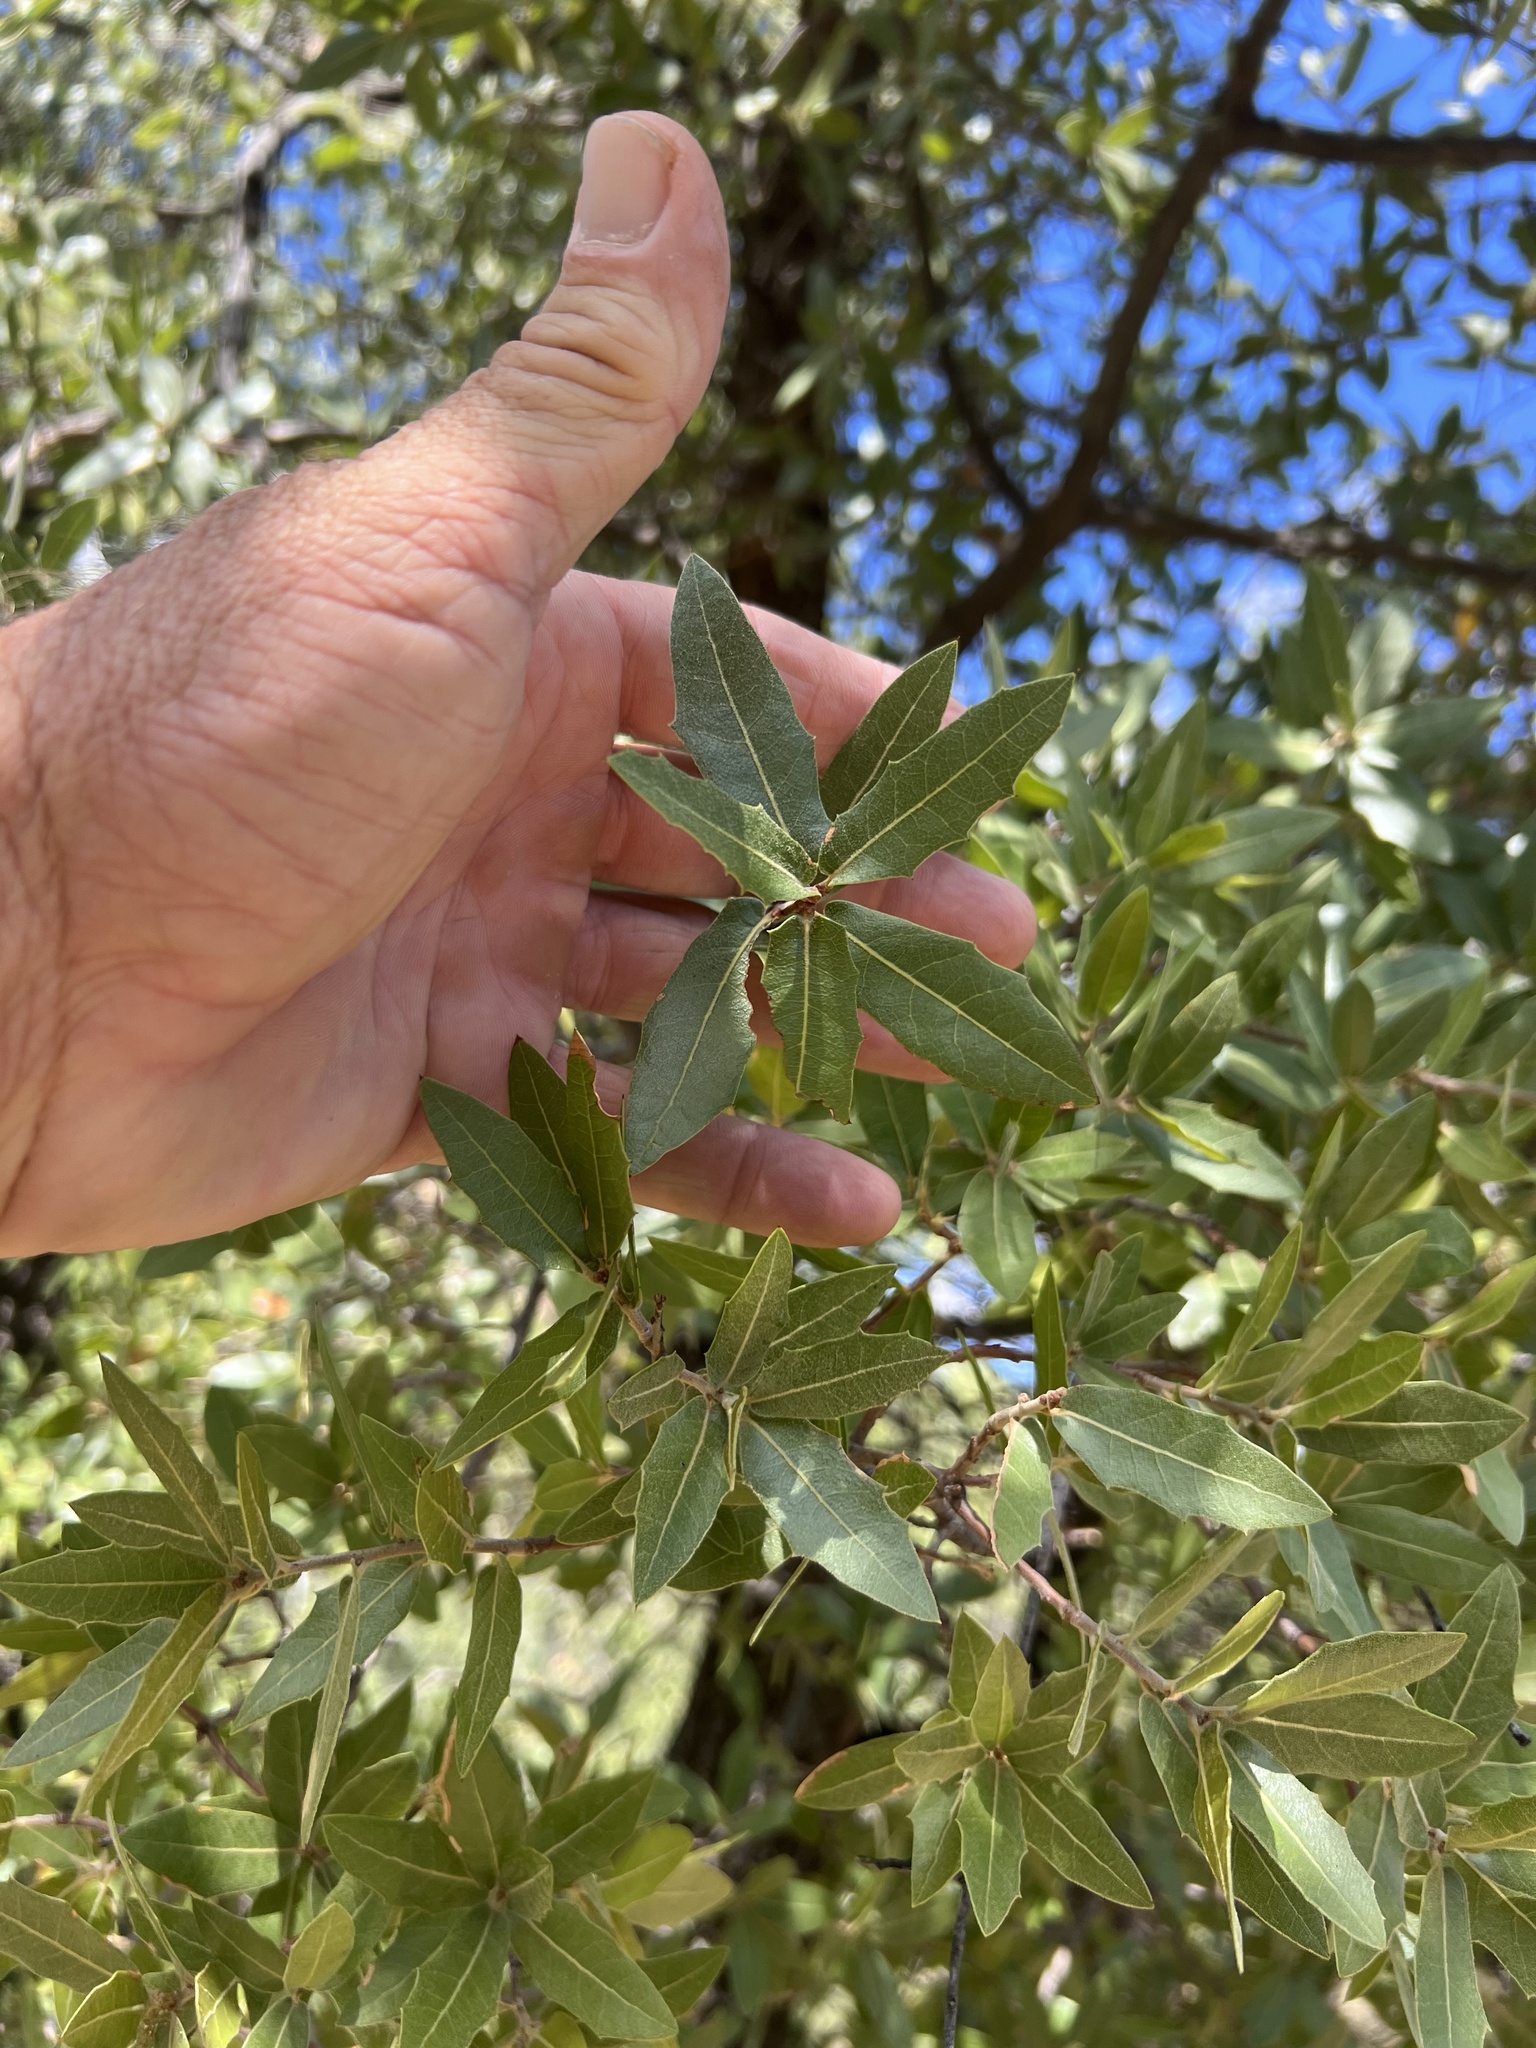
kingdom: Plantae
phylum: Tracheophyta
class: Magnoliopsida
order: Fagales
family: Fagaceae
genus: Quercus
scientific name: Quercus emoryi
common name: Emory oak
